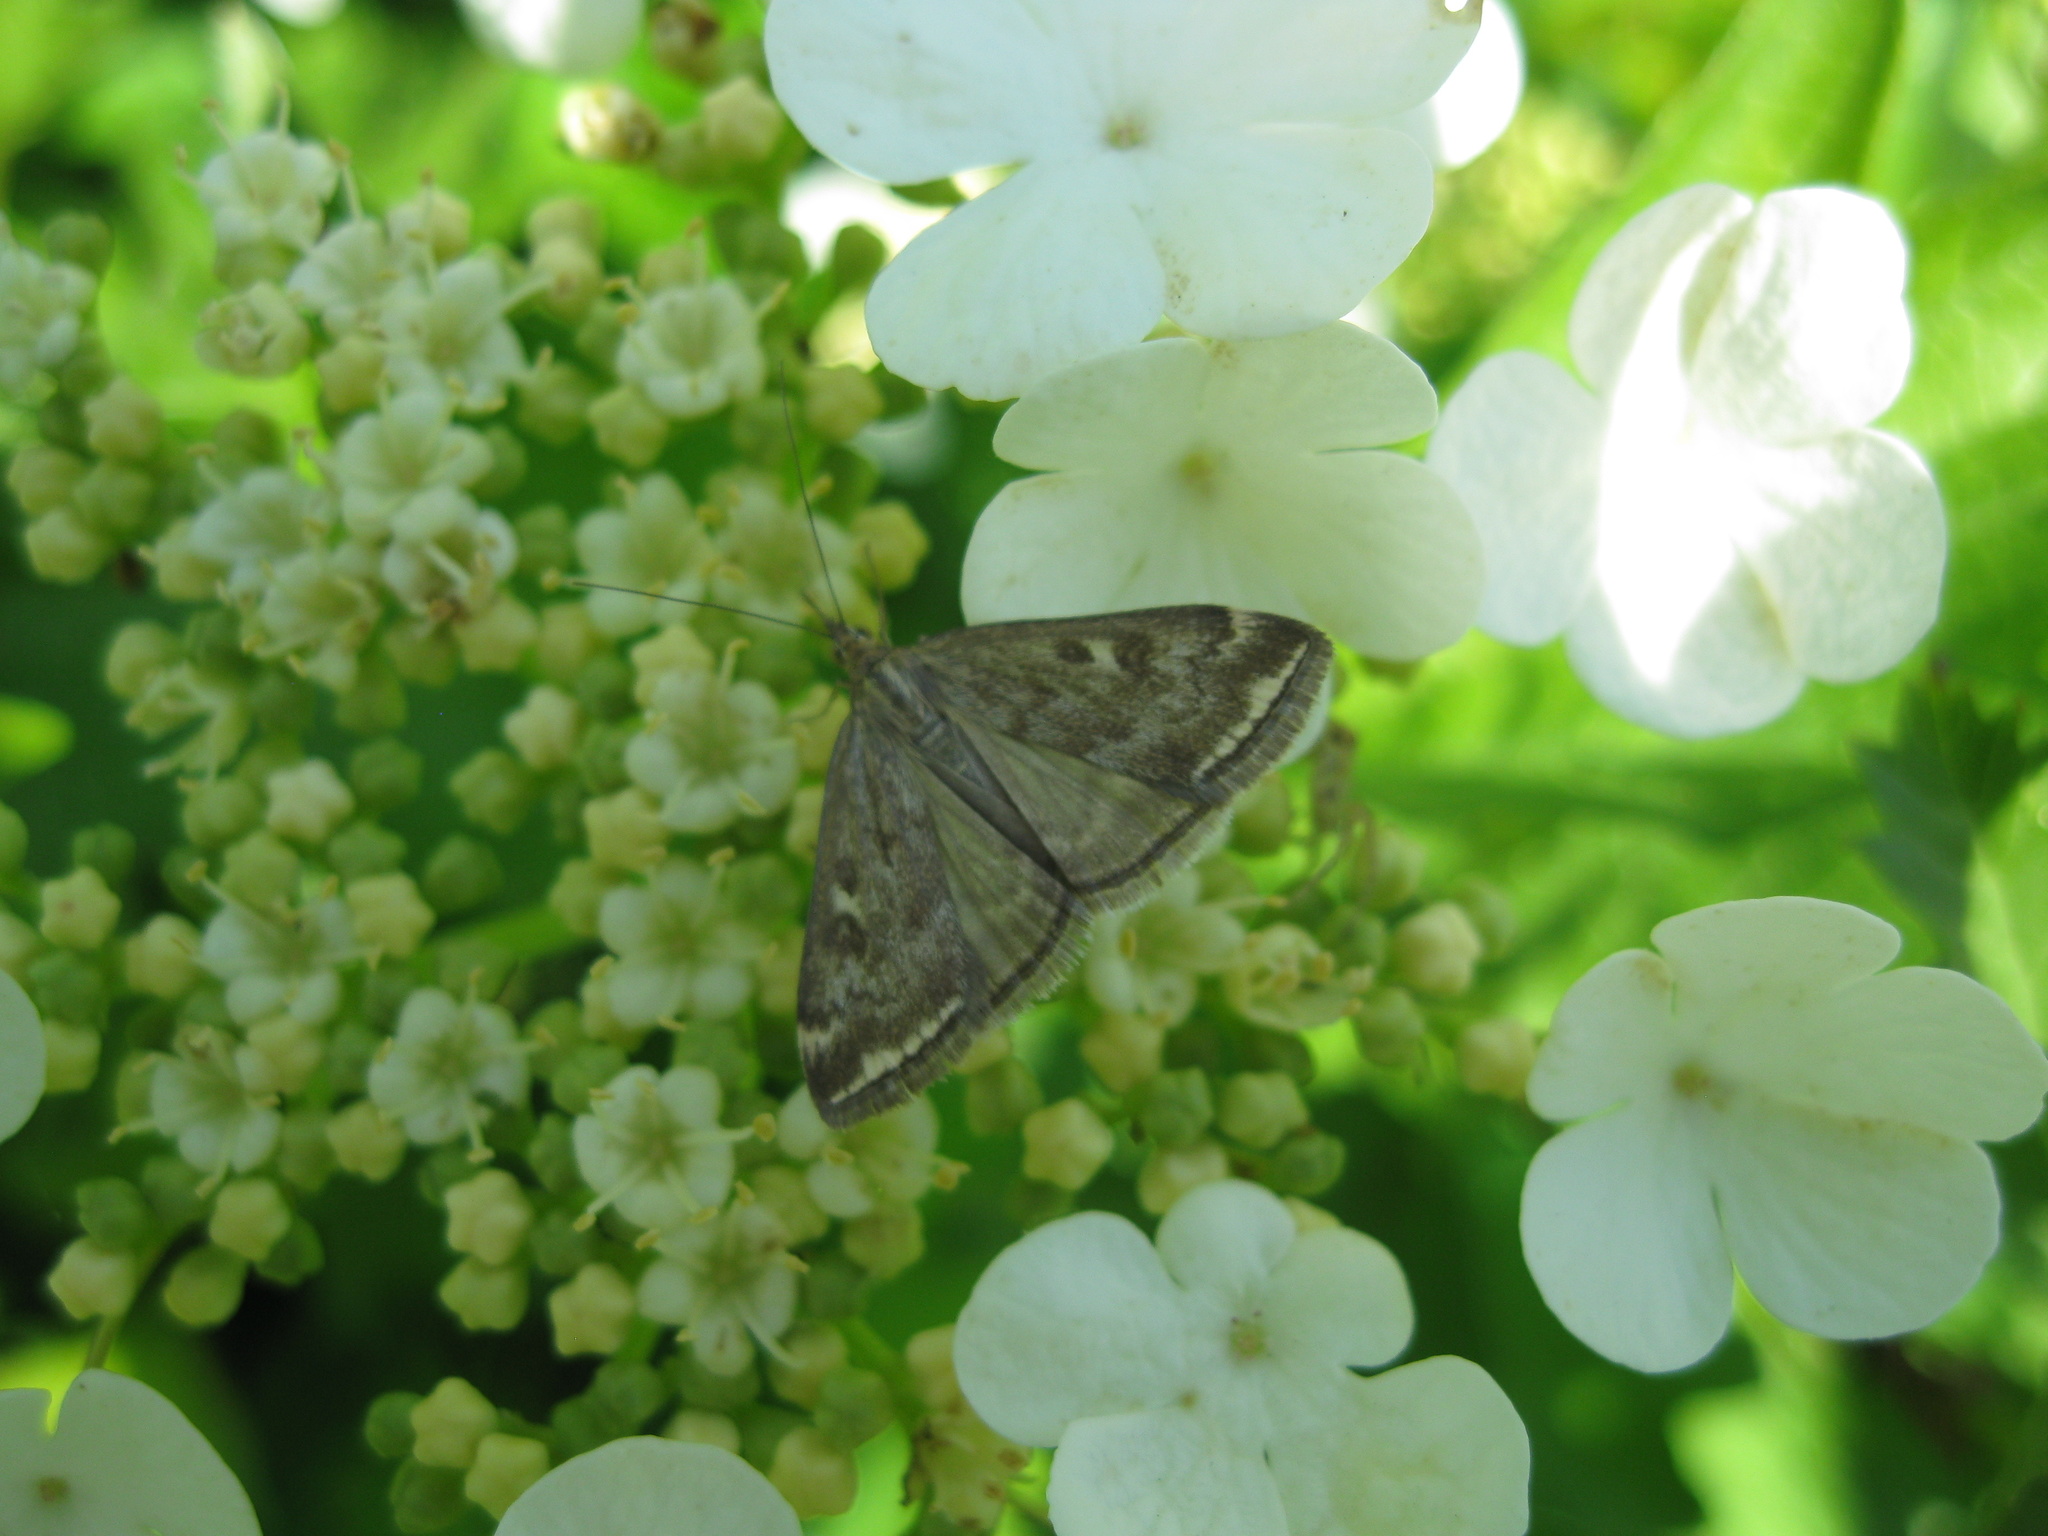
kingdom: Animalia
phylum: Arthropoda
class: Insecta
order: Lepidoptera
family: Crambidae
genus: Loxostege
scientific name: Loxostege sticticalis
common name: Crambid moth
